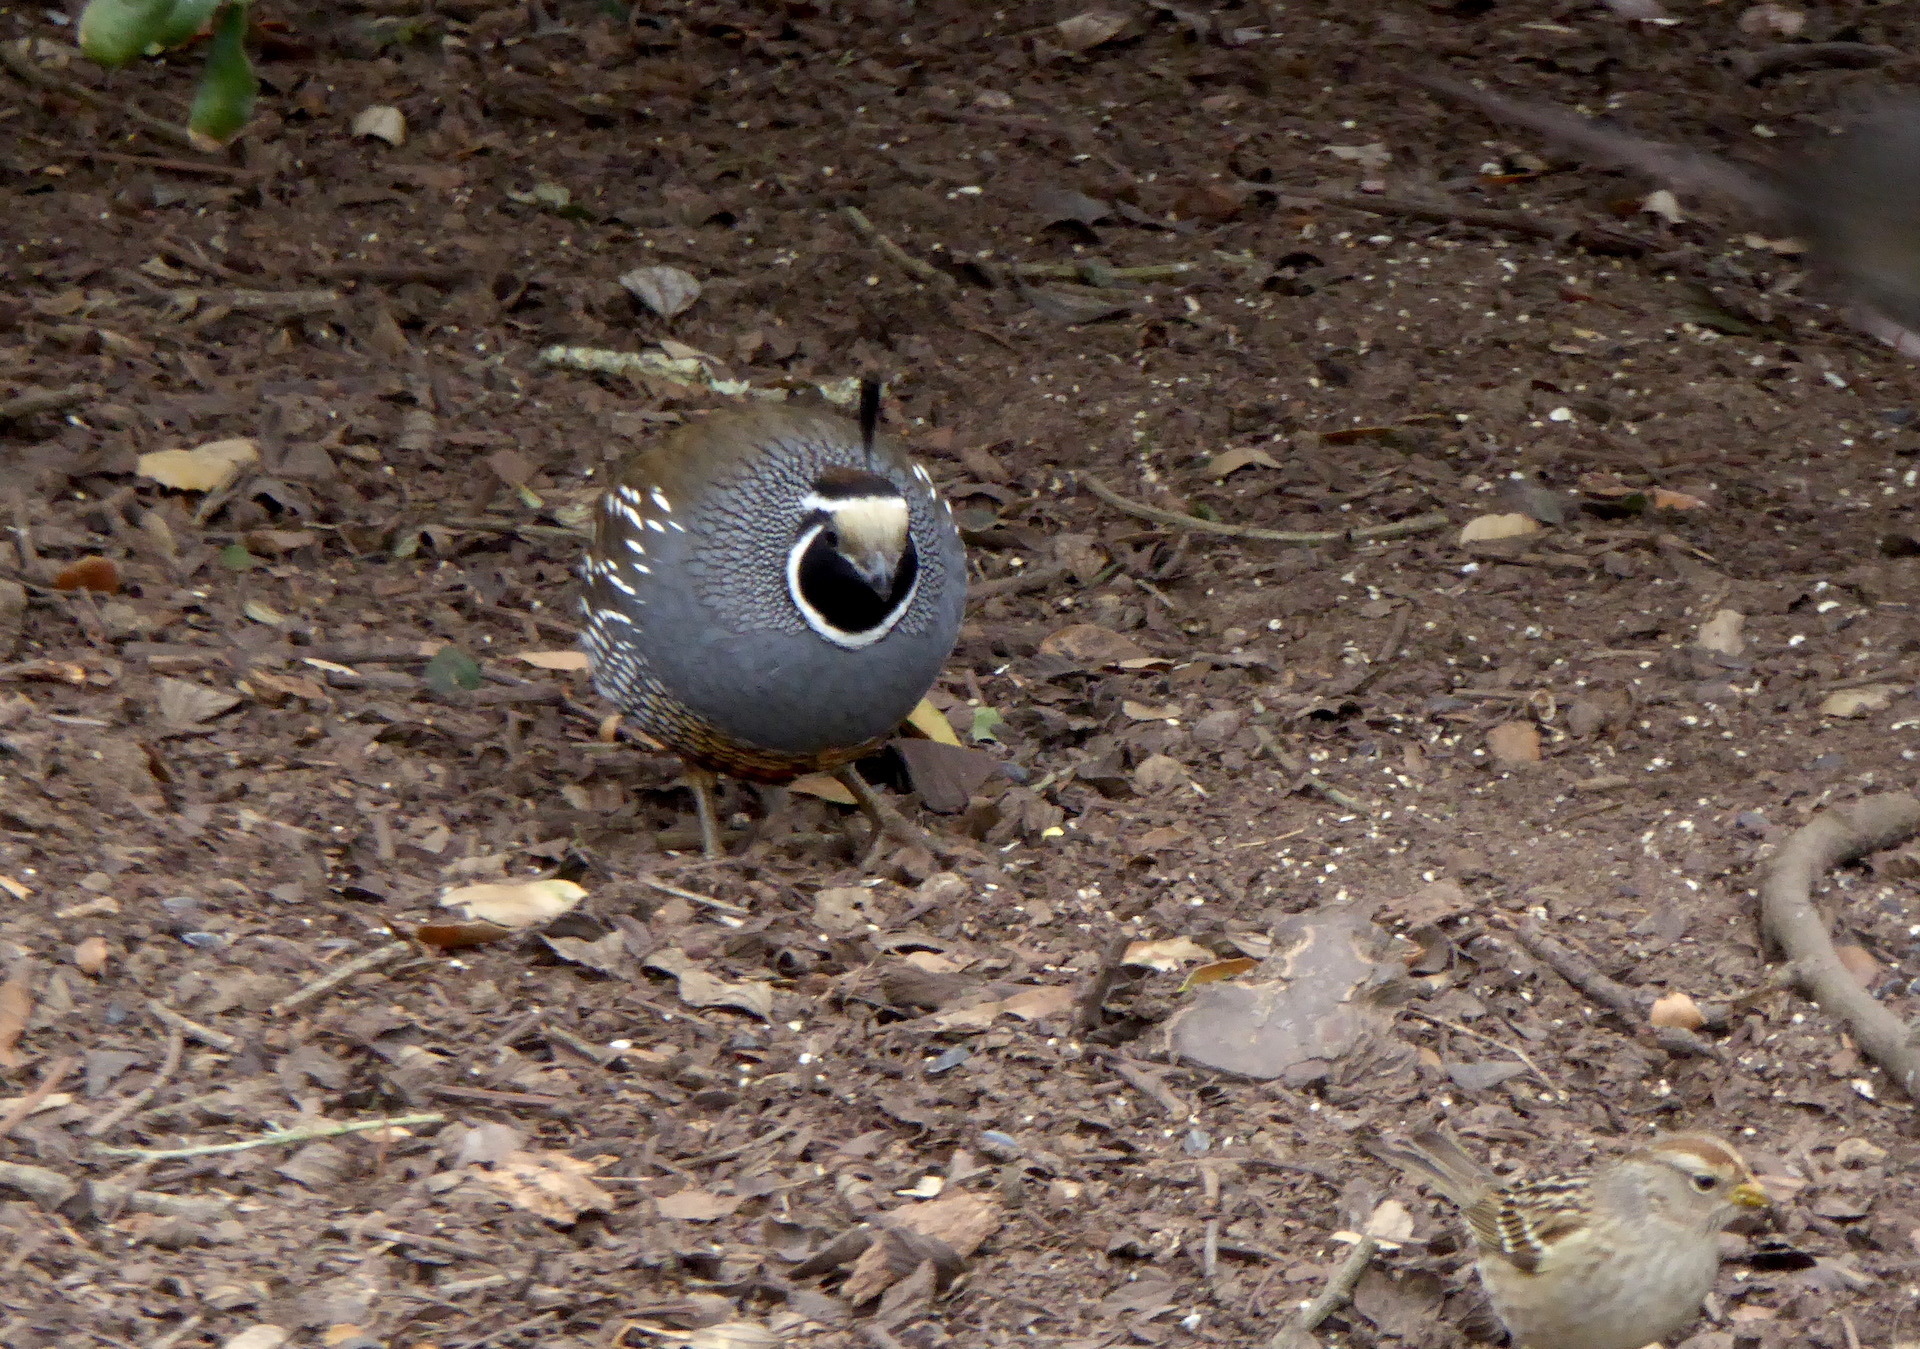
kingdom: Animalia
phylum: Chordata
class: Aves
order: Galliformes
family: Odontophoridae
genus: Callipepla
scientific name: Callipepla californica
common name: California quail
